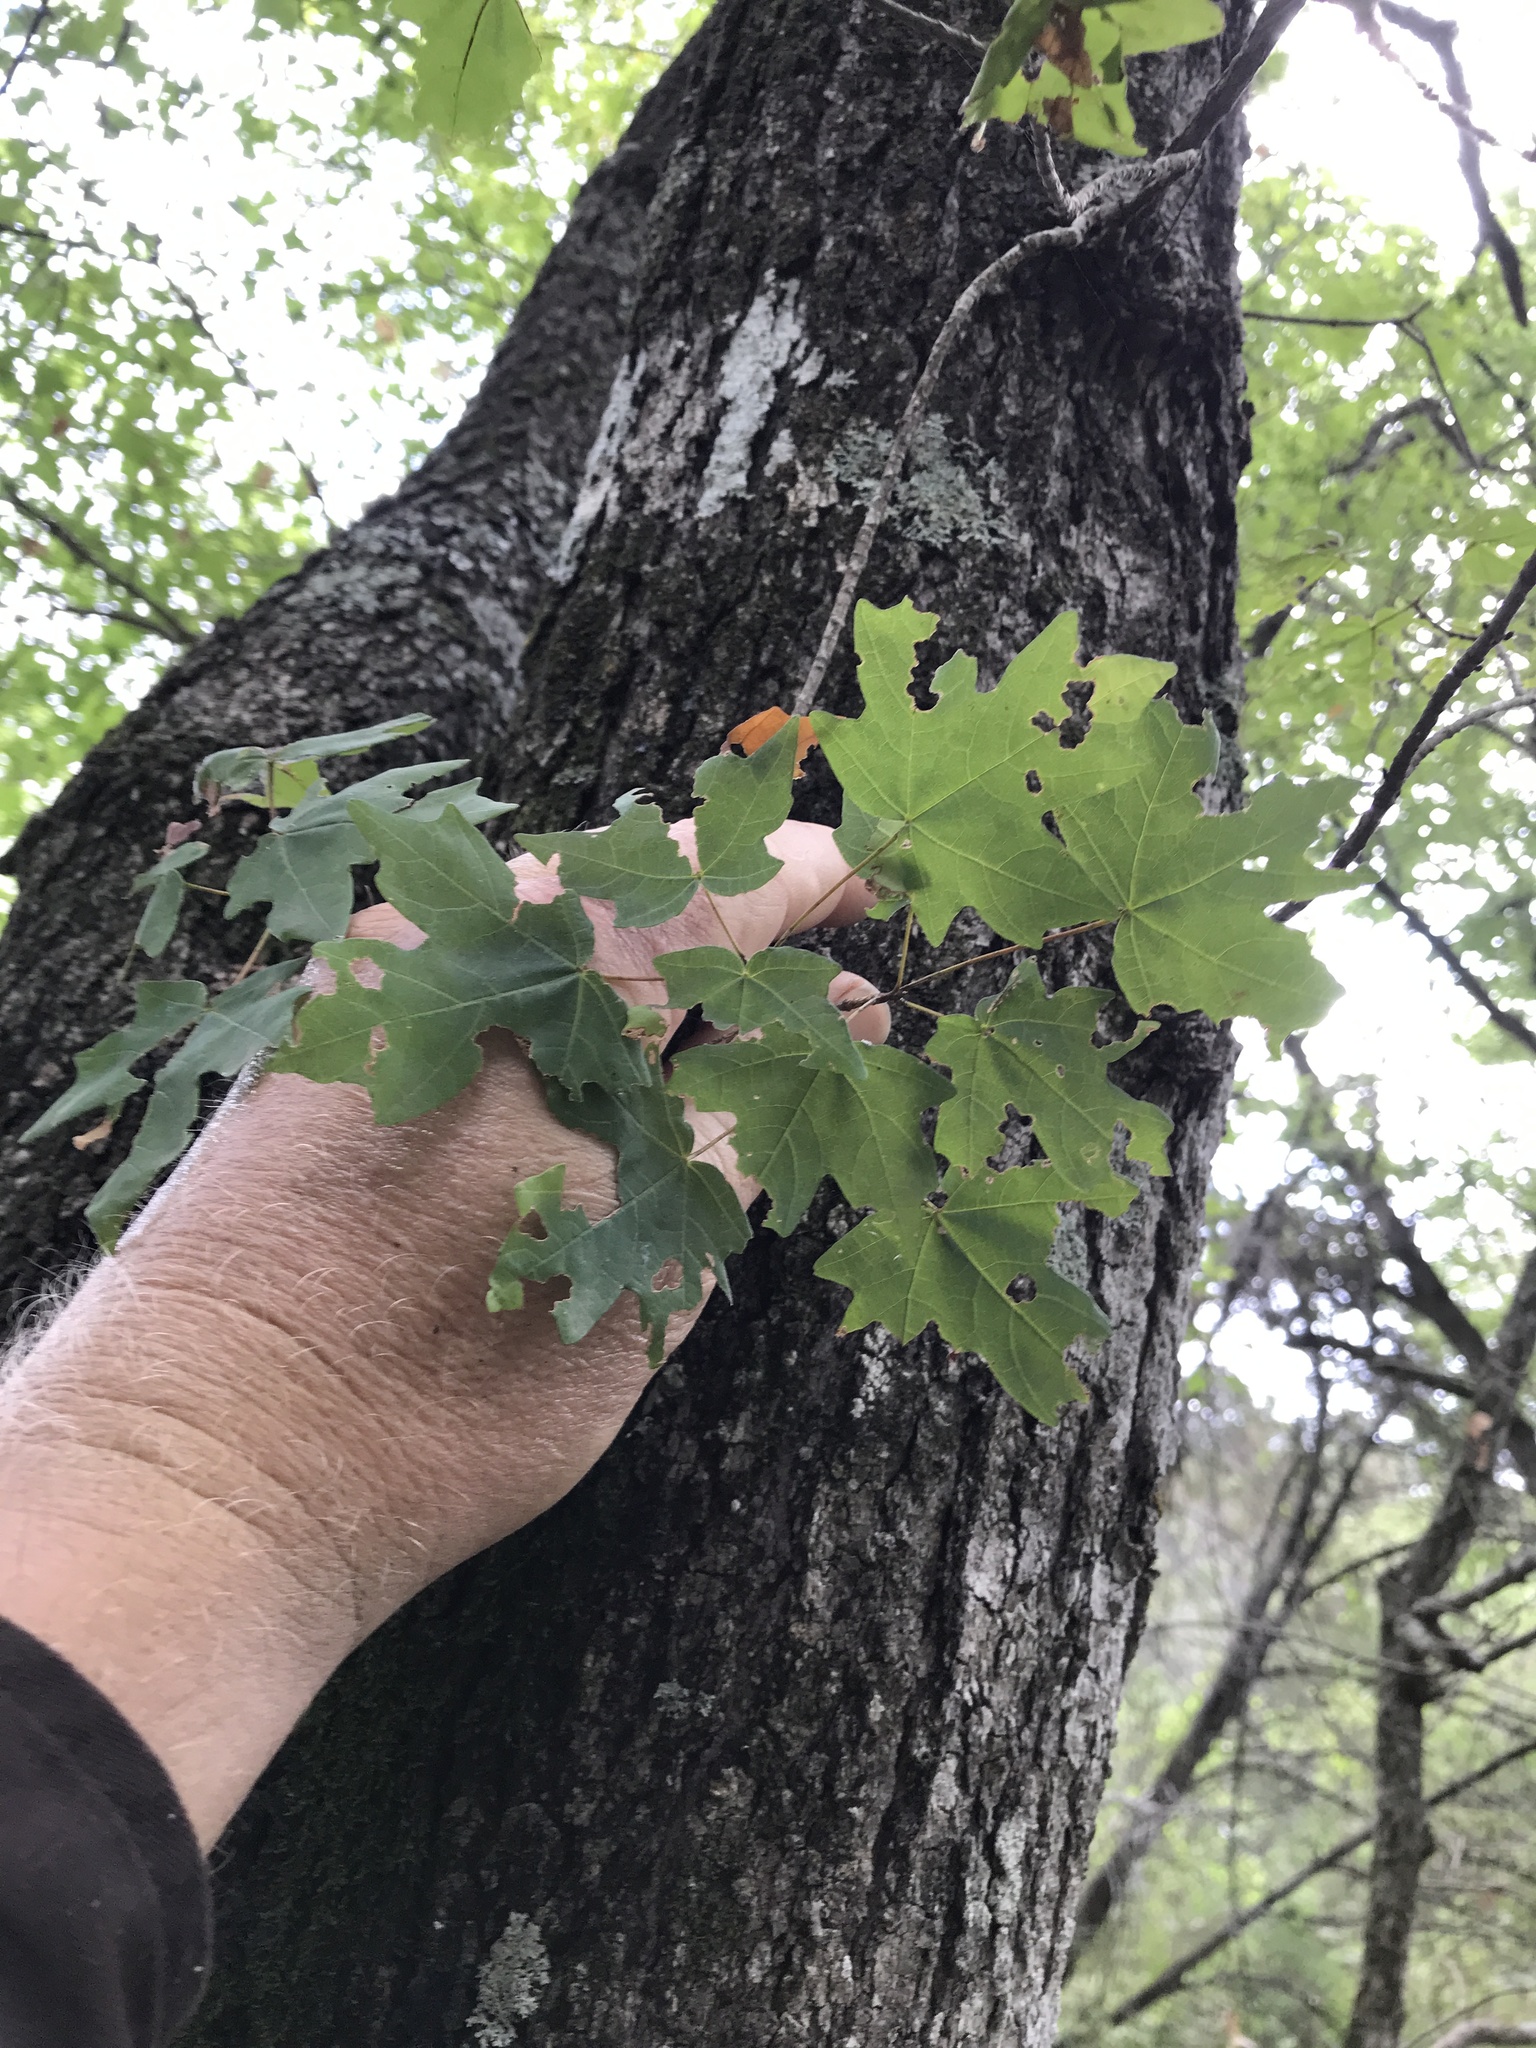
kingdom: Plantae
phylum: Tracheophyta
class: Magnoliopsida
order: Sapindales
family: Sapindaceae
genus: Acer
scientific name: Acer grandidentatum
